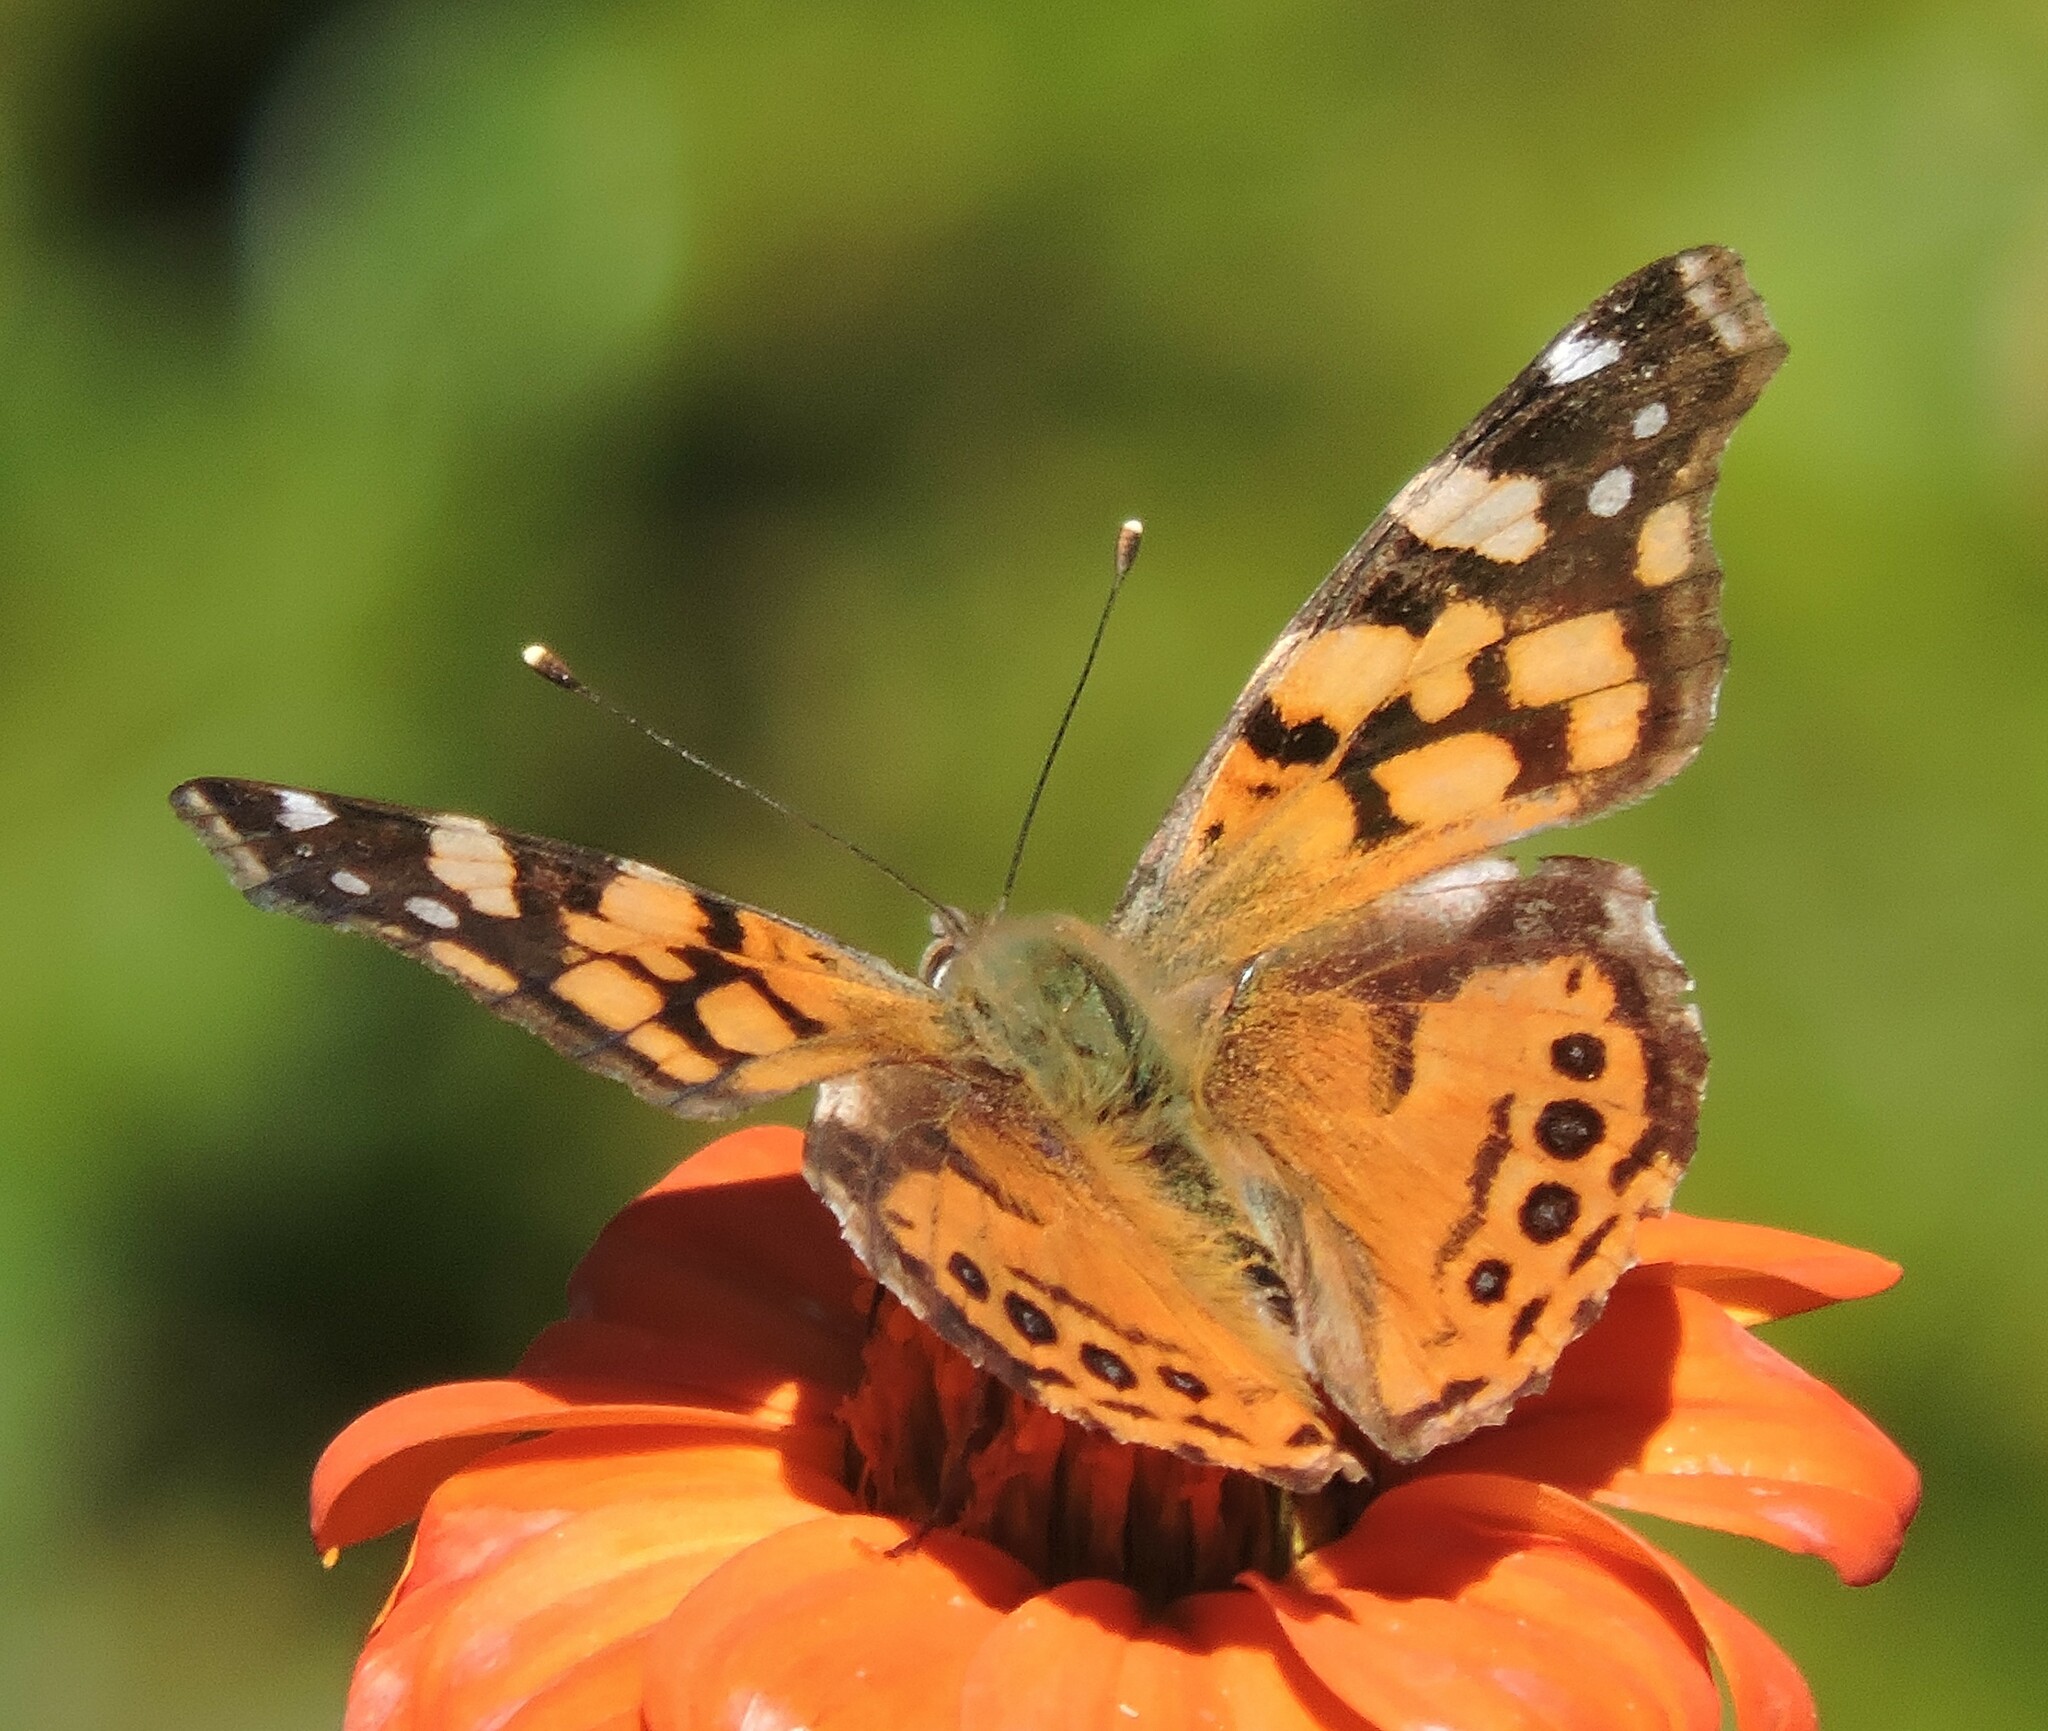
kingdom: Animalia
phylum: Arthropoda
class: Insecta
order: Lepidoptera
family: Nymphalidae
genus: Vanessa
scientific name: Vanessa annabella
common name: West coast lady
